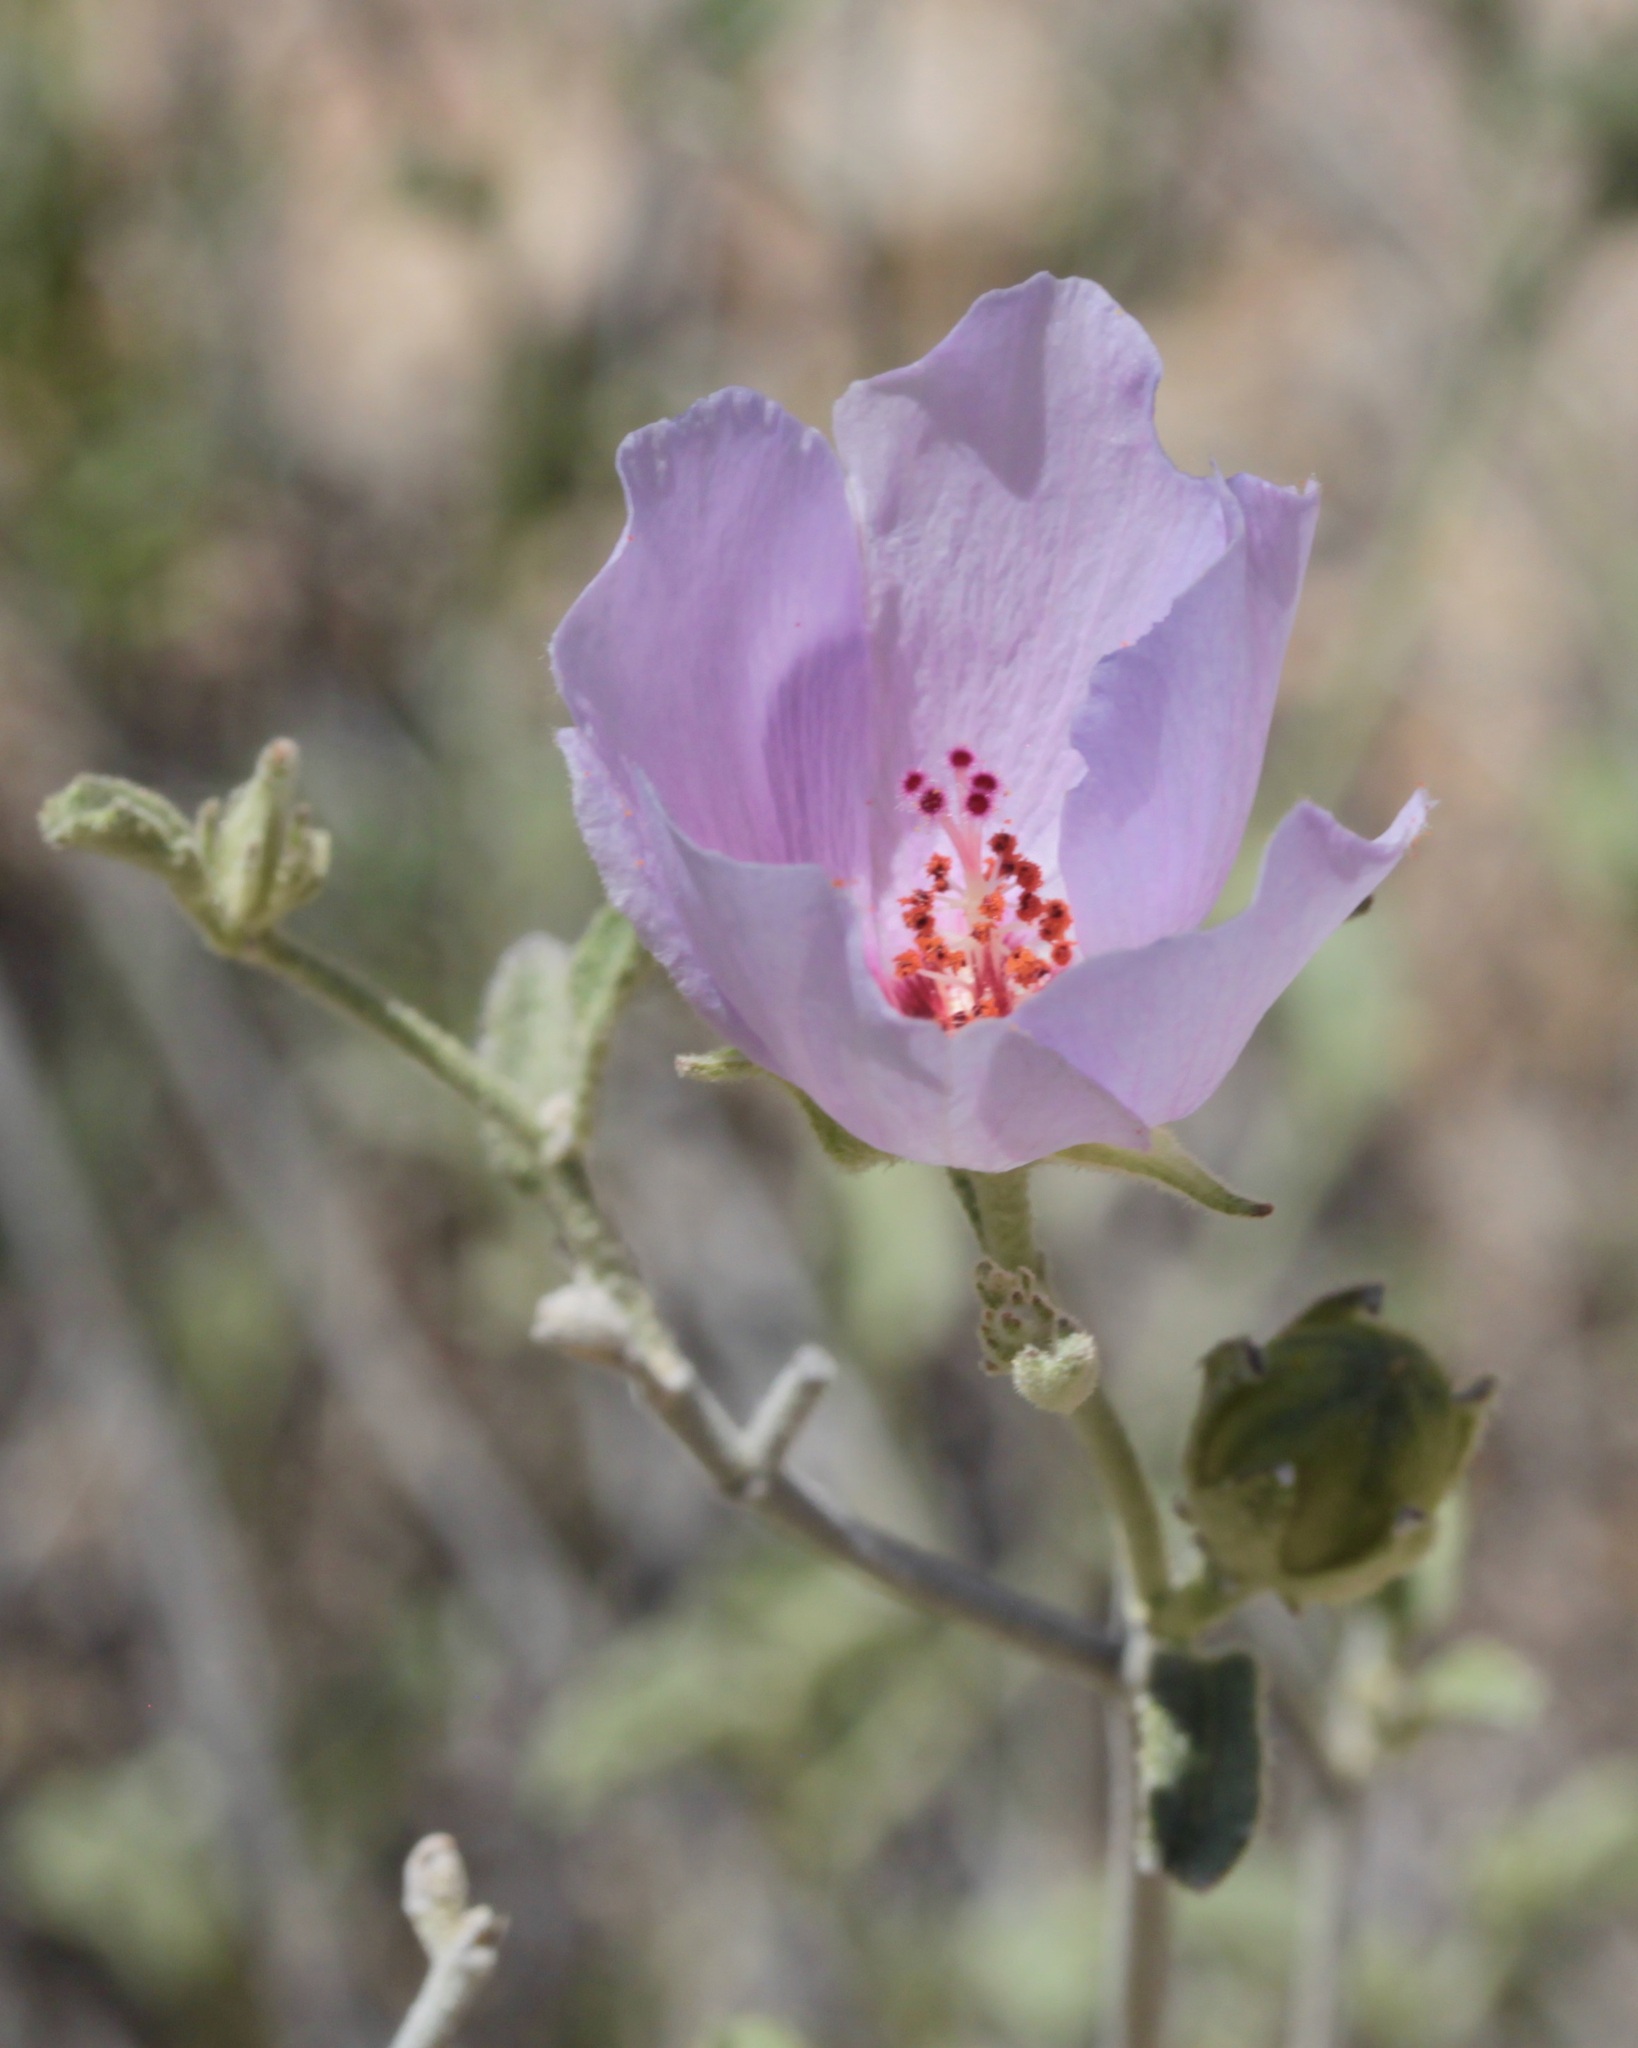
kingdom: Plantae
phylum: Tracheophyta
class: Magnoliopsida
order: Malvales
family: Malvaceae
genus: Hibiscus
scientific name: Hibiscus denudatus
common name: Paleface
